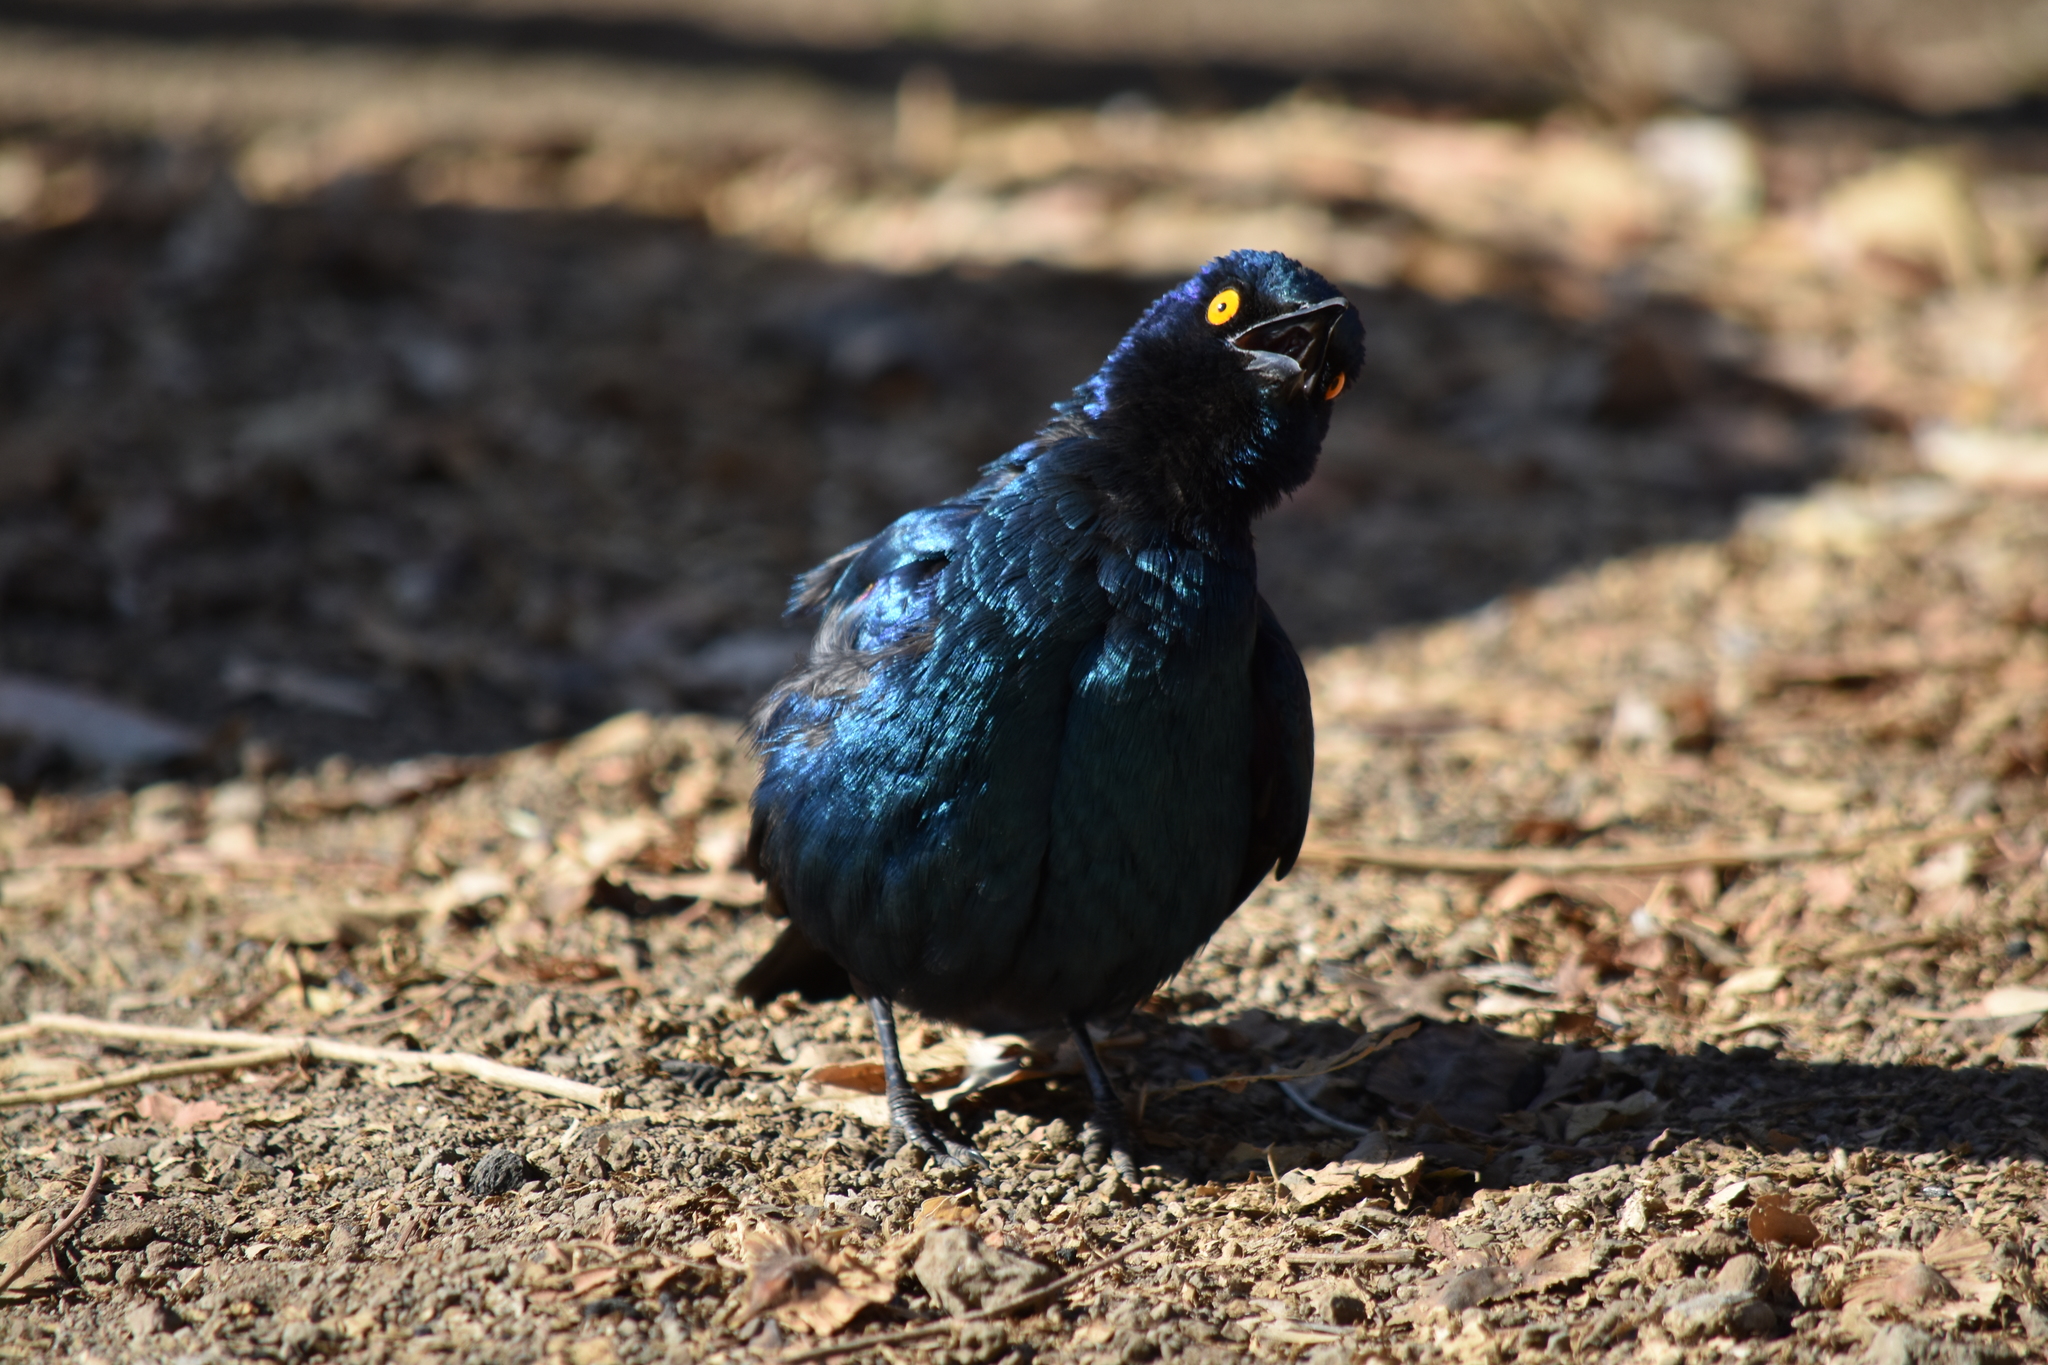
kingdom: Animalia
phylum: Chordata
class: Aves
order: Passeriformes
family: Sturnidae
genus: Lamprotornis
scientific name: Lamprotornis nitens
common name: Cape starling
